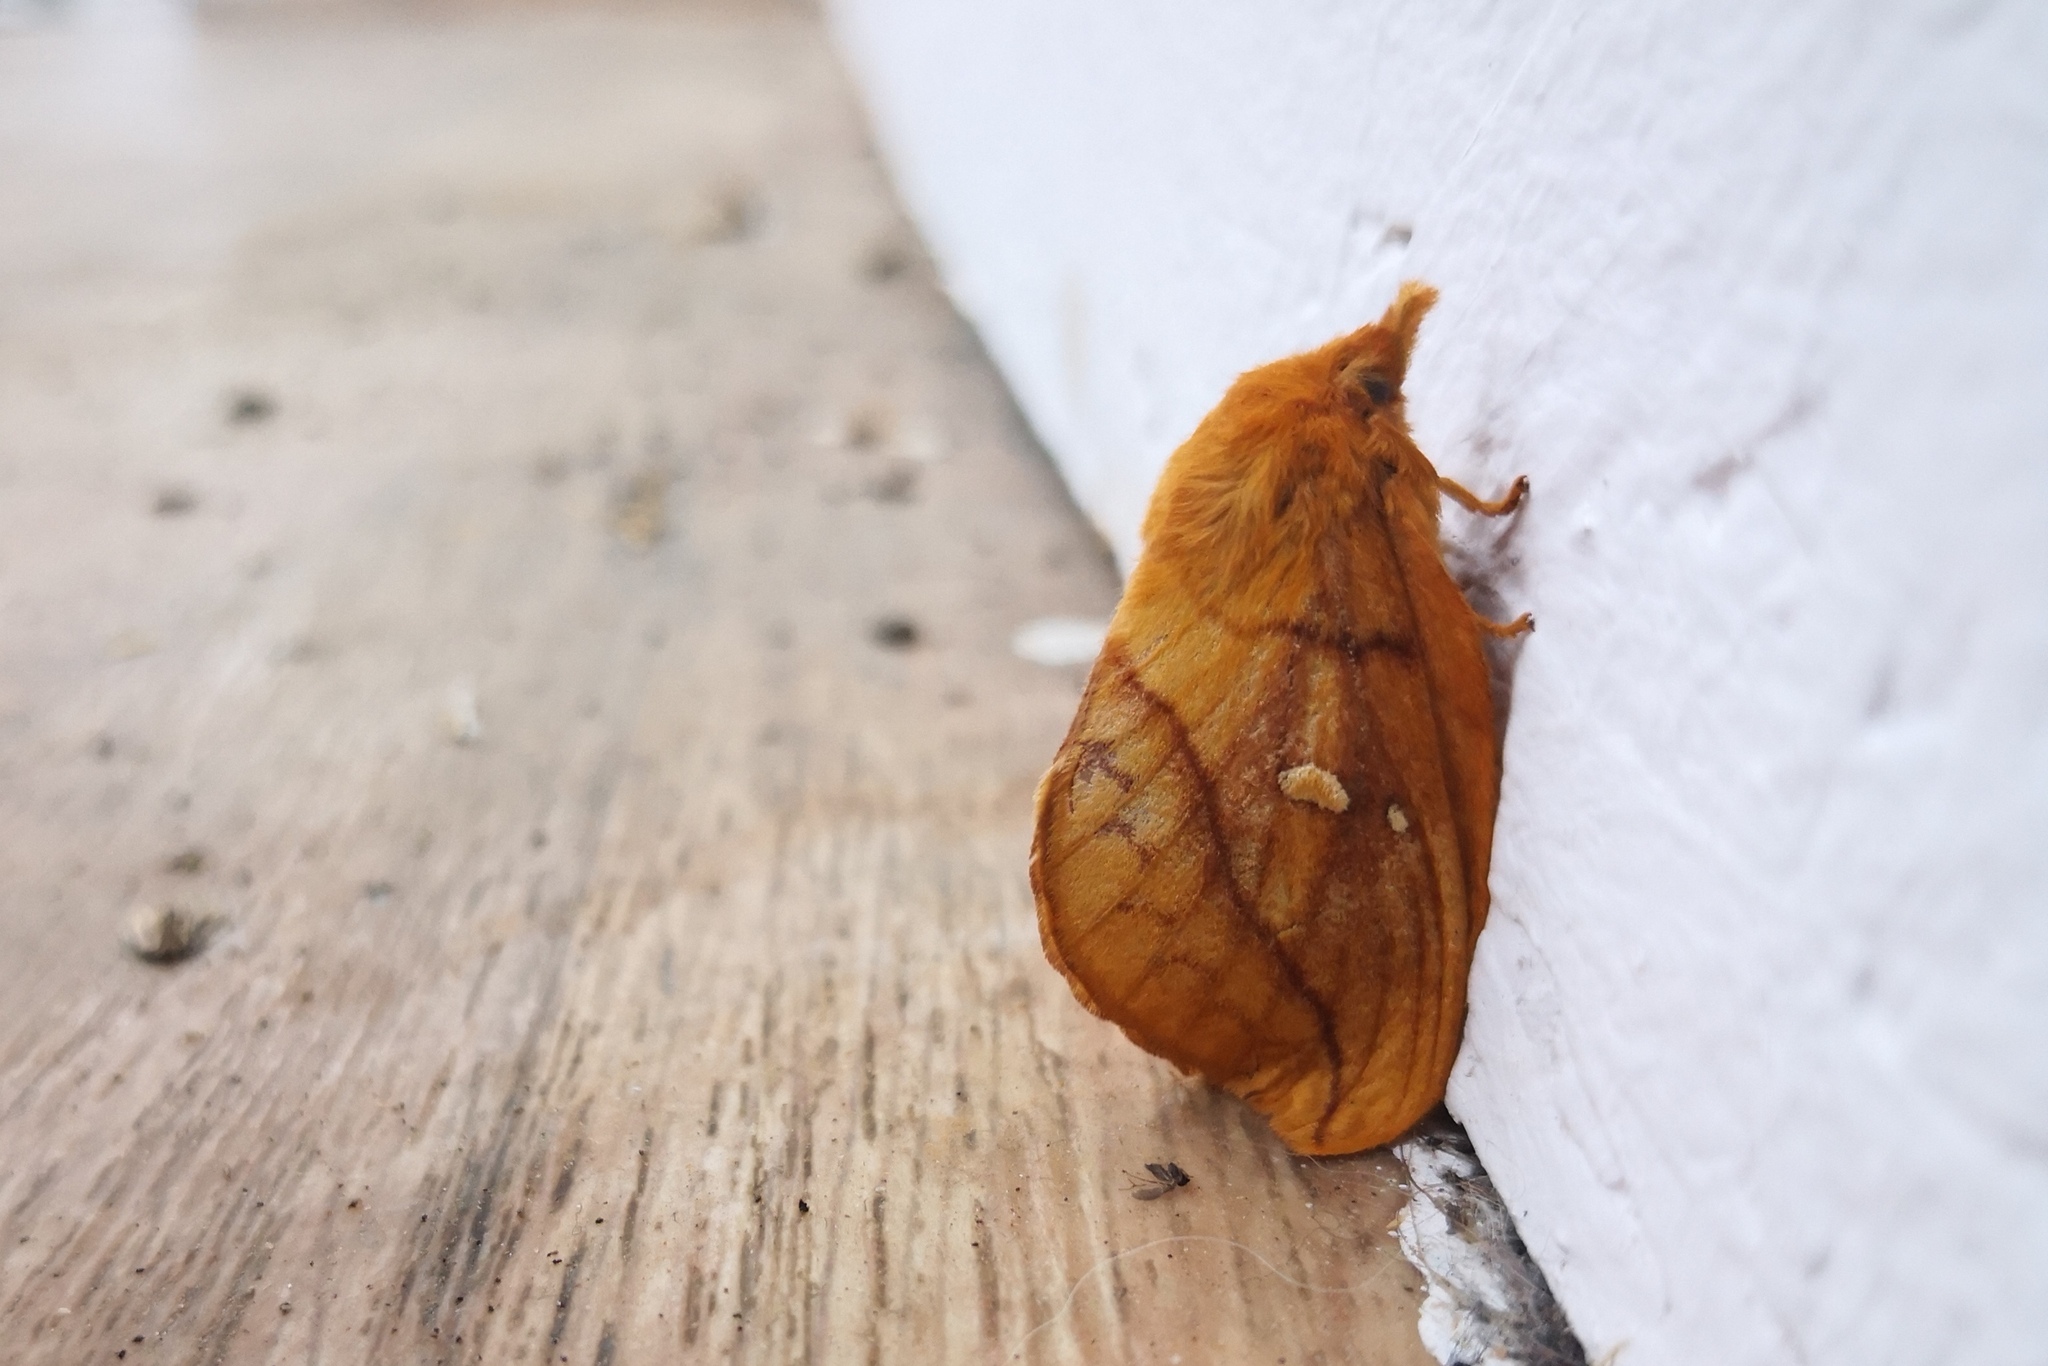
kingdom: Animalia
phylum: Arthropoda
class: Insecta
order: Lepidoptera
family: Lasiocampidae
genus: Euthrix
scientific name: Euthrix potatoria
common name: Drinker
